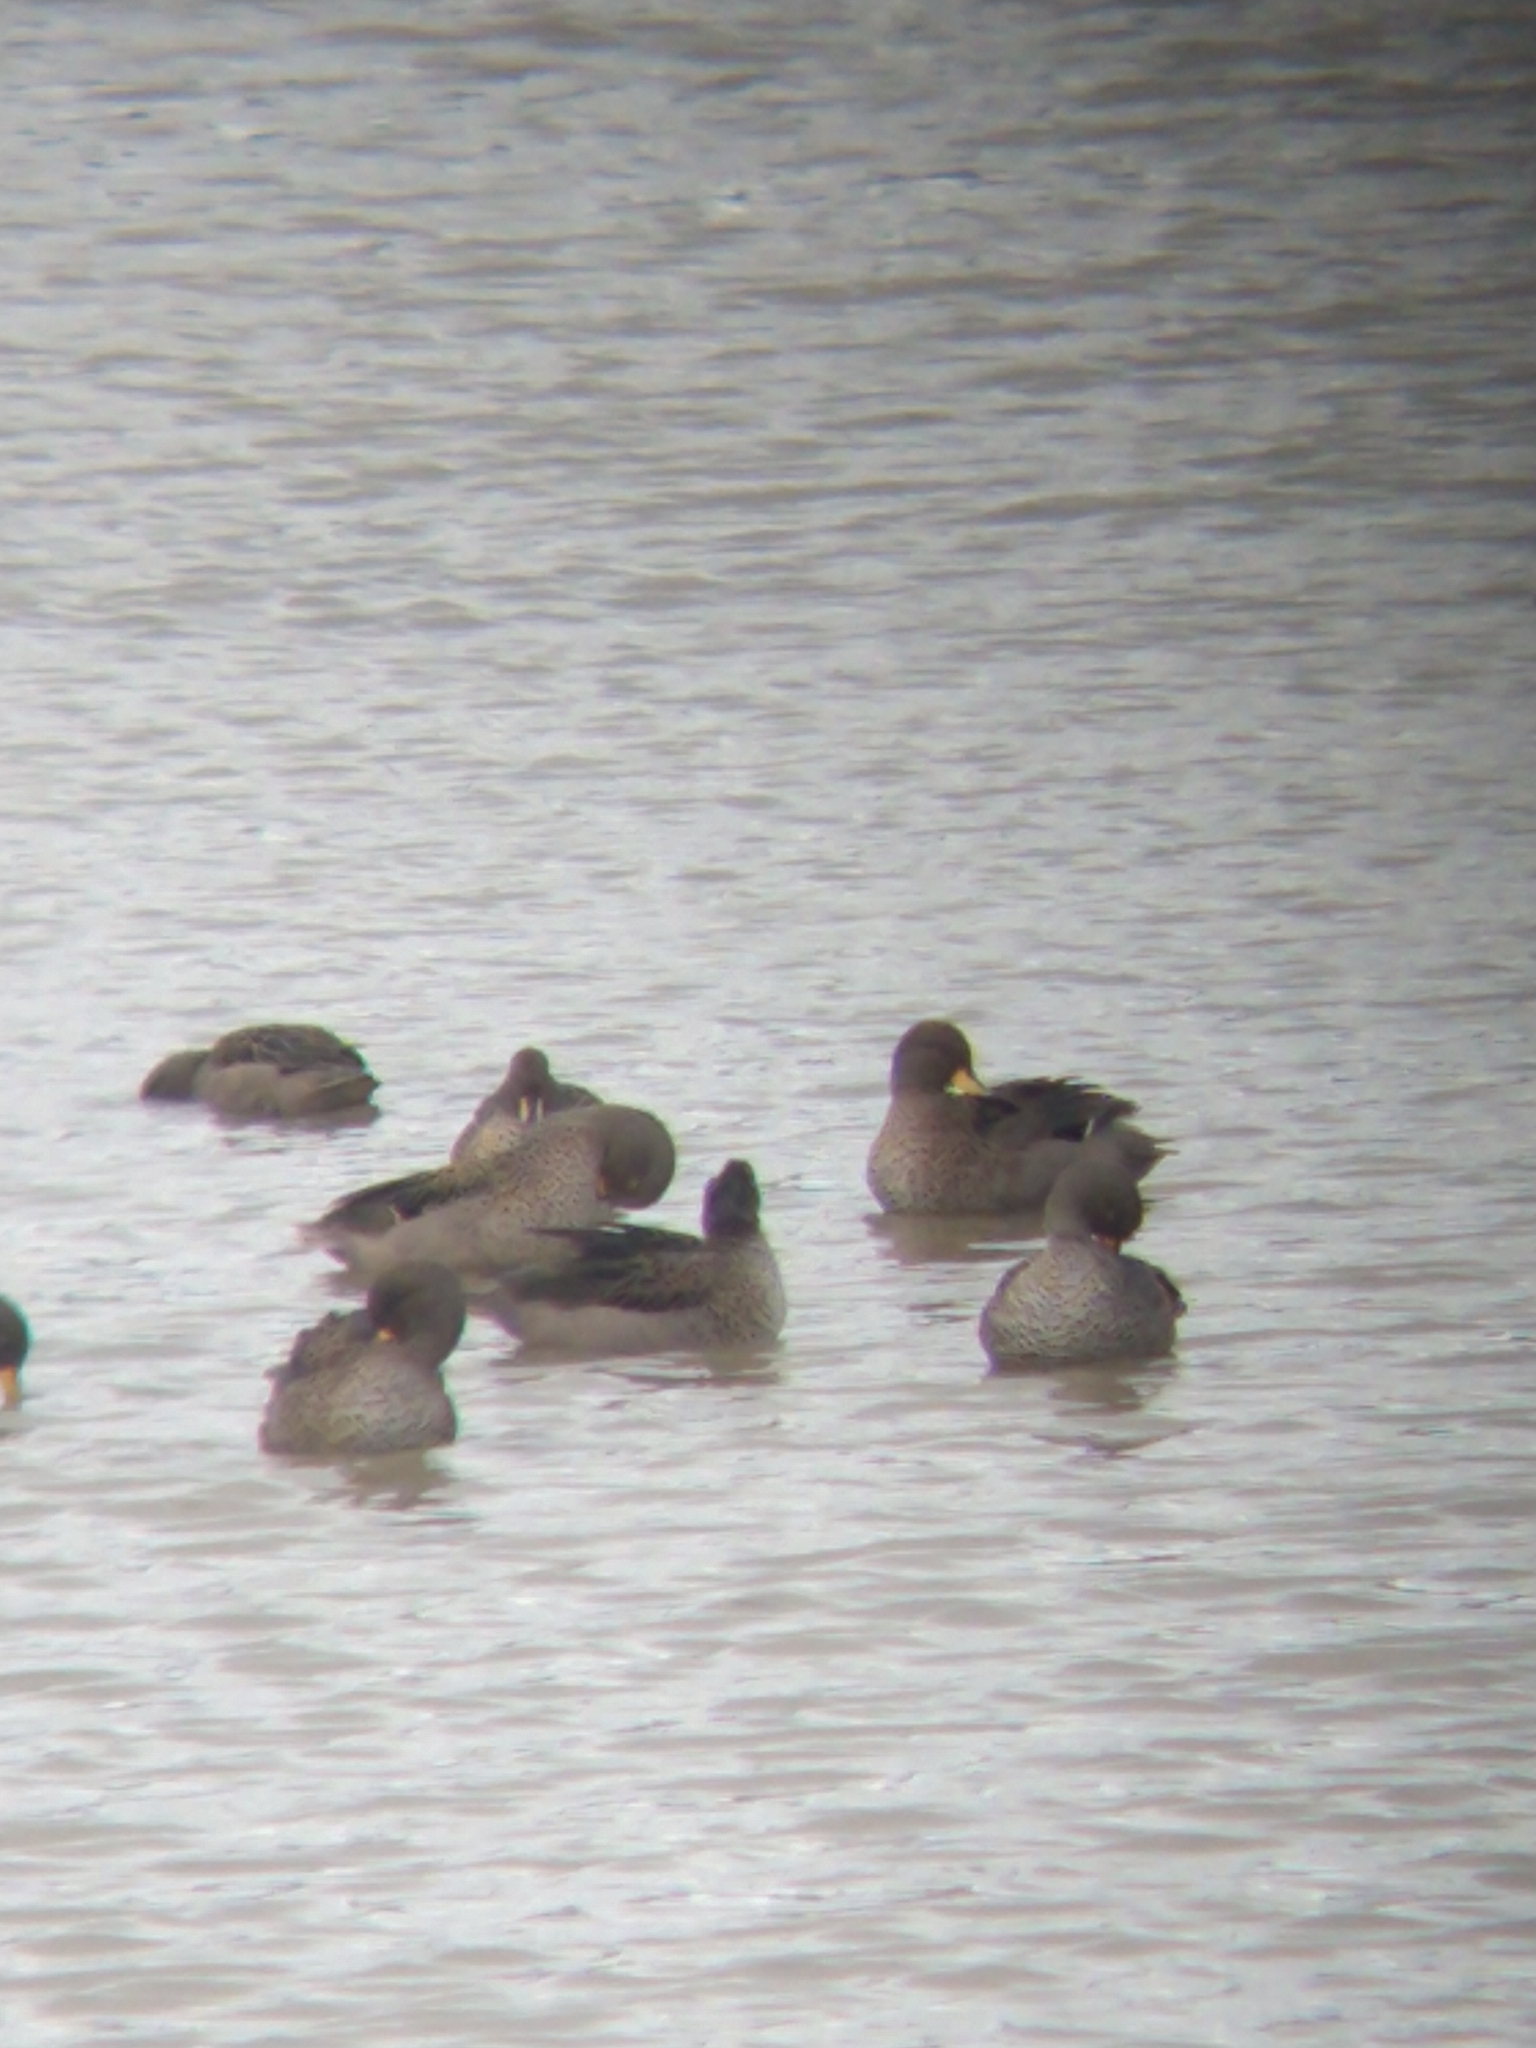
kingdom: Animalia
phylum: Chordata
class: Aves
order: Anseriformes
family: Anatidae
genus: Anas
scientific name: Anas flavirostris
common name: Yellow-billed teal
